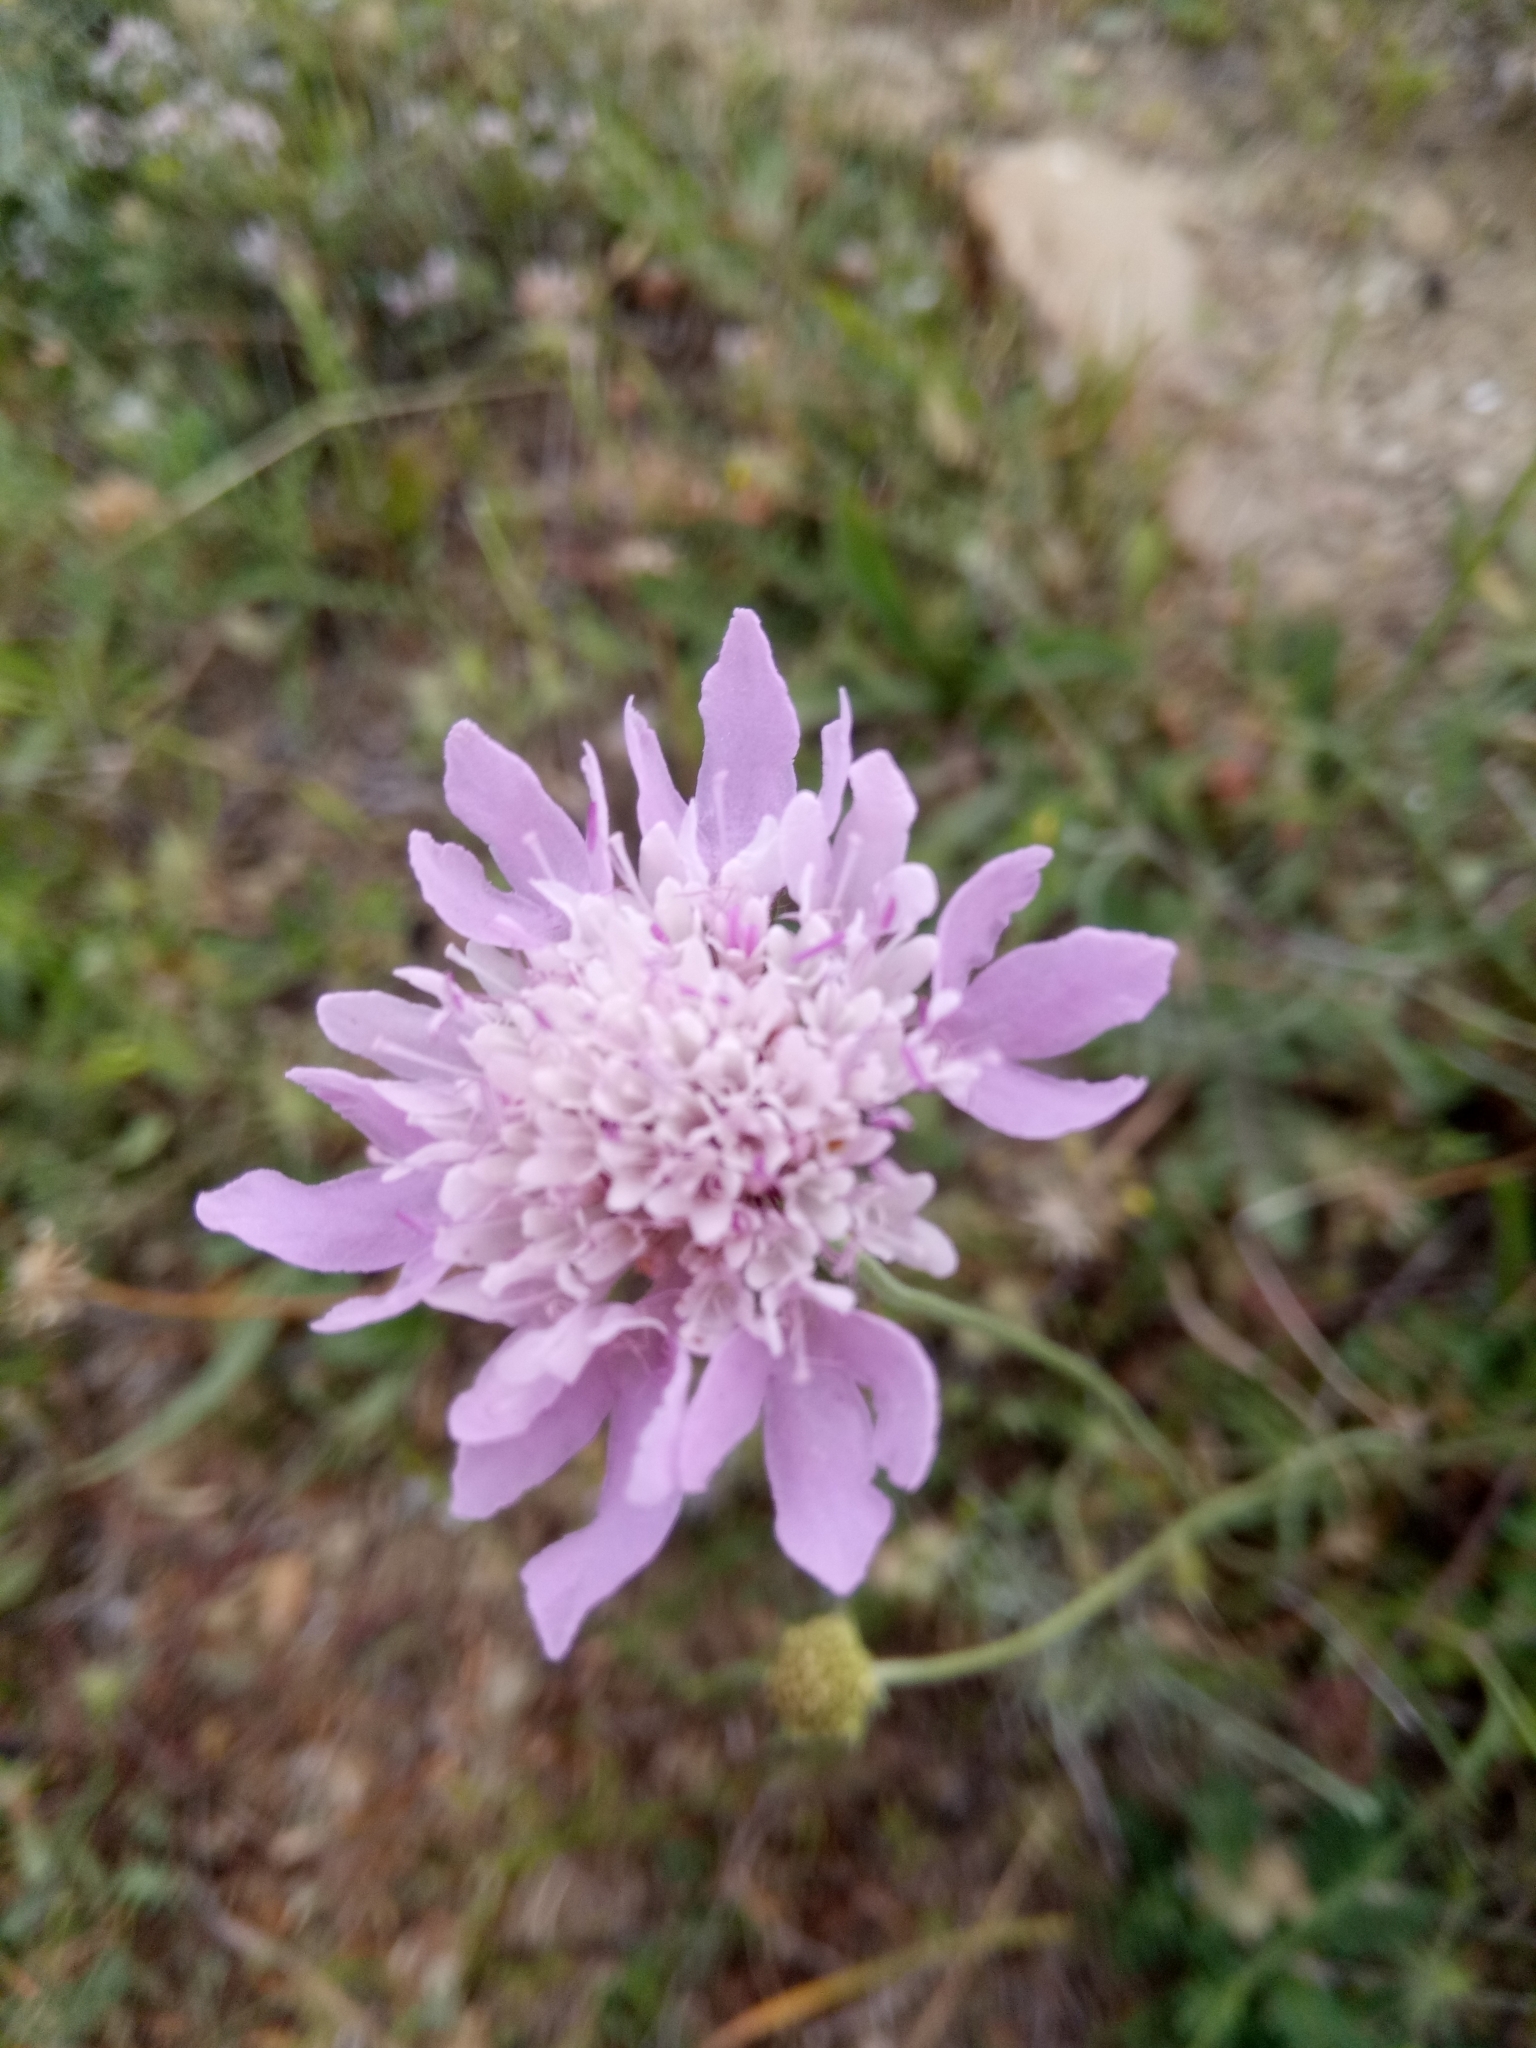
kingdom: Plantae
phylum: Tracheophyta
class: Magnoliopsida
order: Dipsacales
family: Caprifoliaceae
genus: Sixalix
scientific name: Sixalix atropurpurea
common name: Sweet scabious
